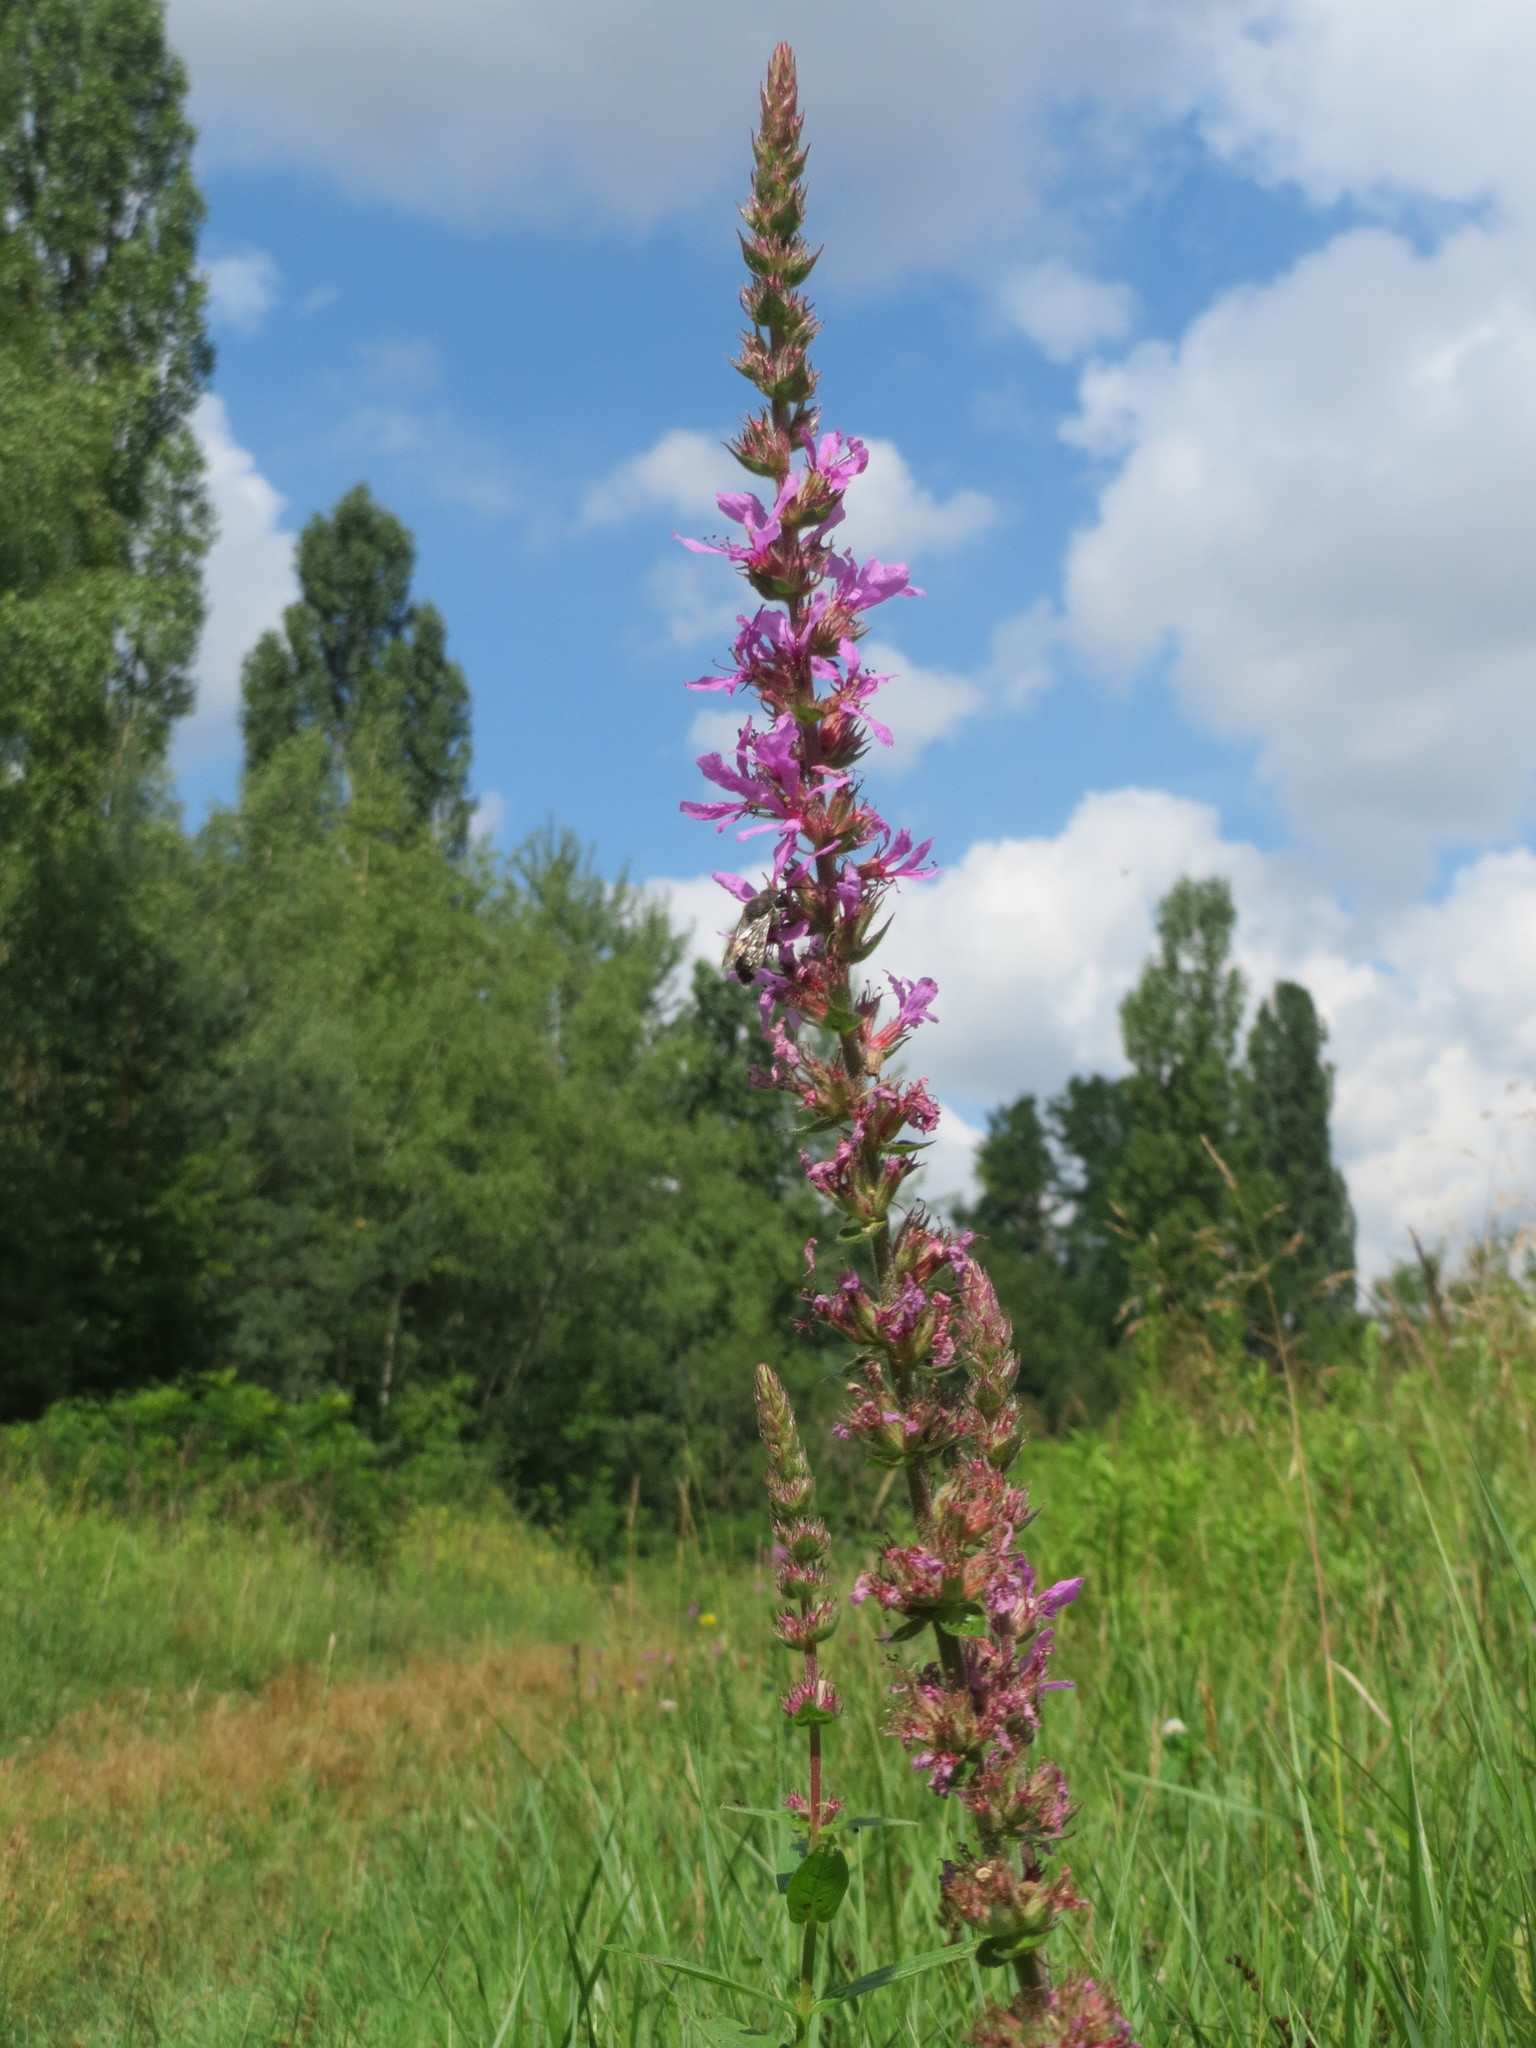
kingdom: Plantae
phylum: Tracheophyta
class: Magnoliopsida
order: Myrtales
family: Lythraceae
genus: Lythrum
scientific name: Lythrum salicaria
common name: Purple loosestrife
